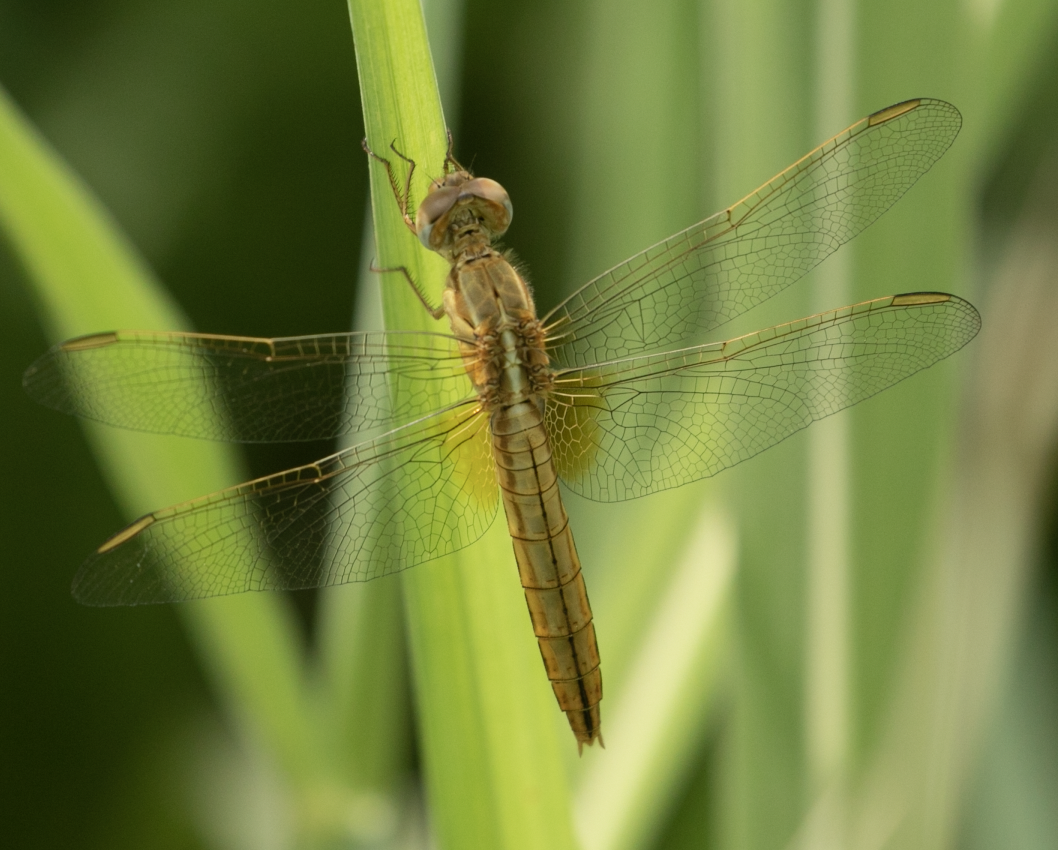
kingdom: Animalia
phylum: Arthropoda
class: Insecta
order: Odonata
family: Libellulidae
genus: Crocothemis
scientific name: Crocothemis erythraea
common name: Scarlet dragonfly
